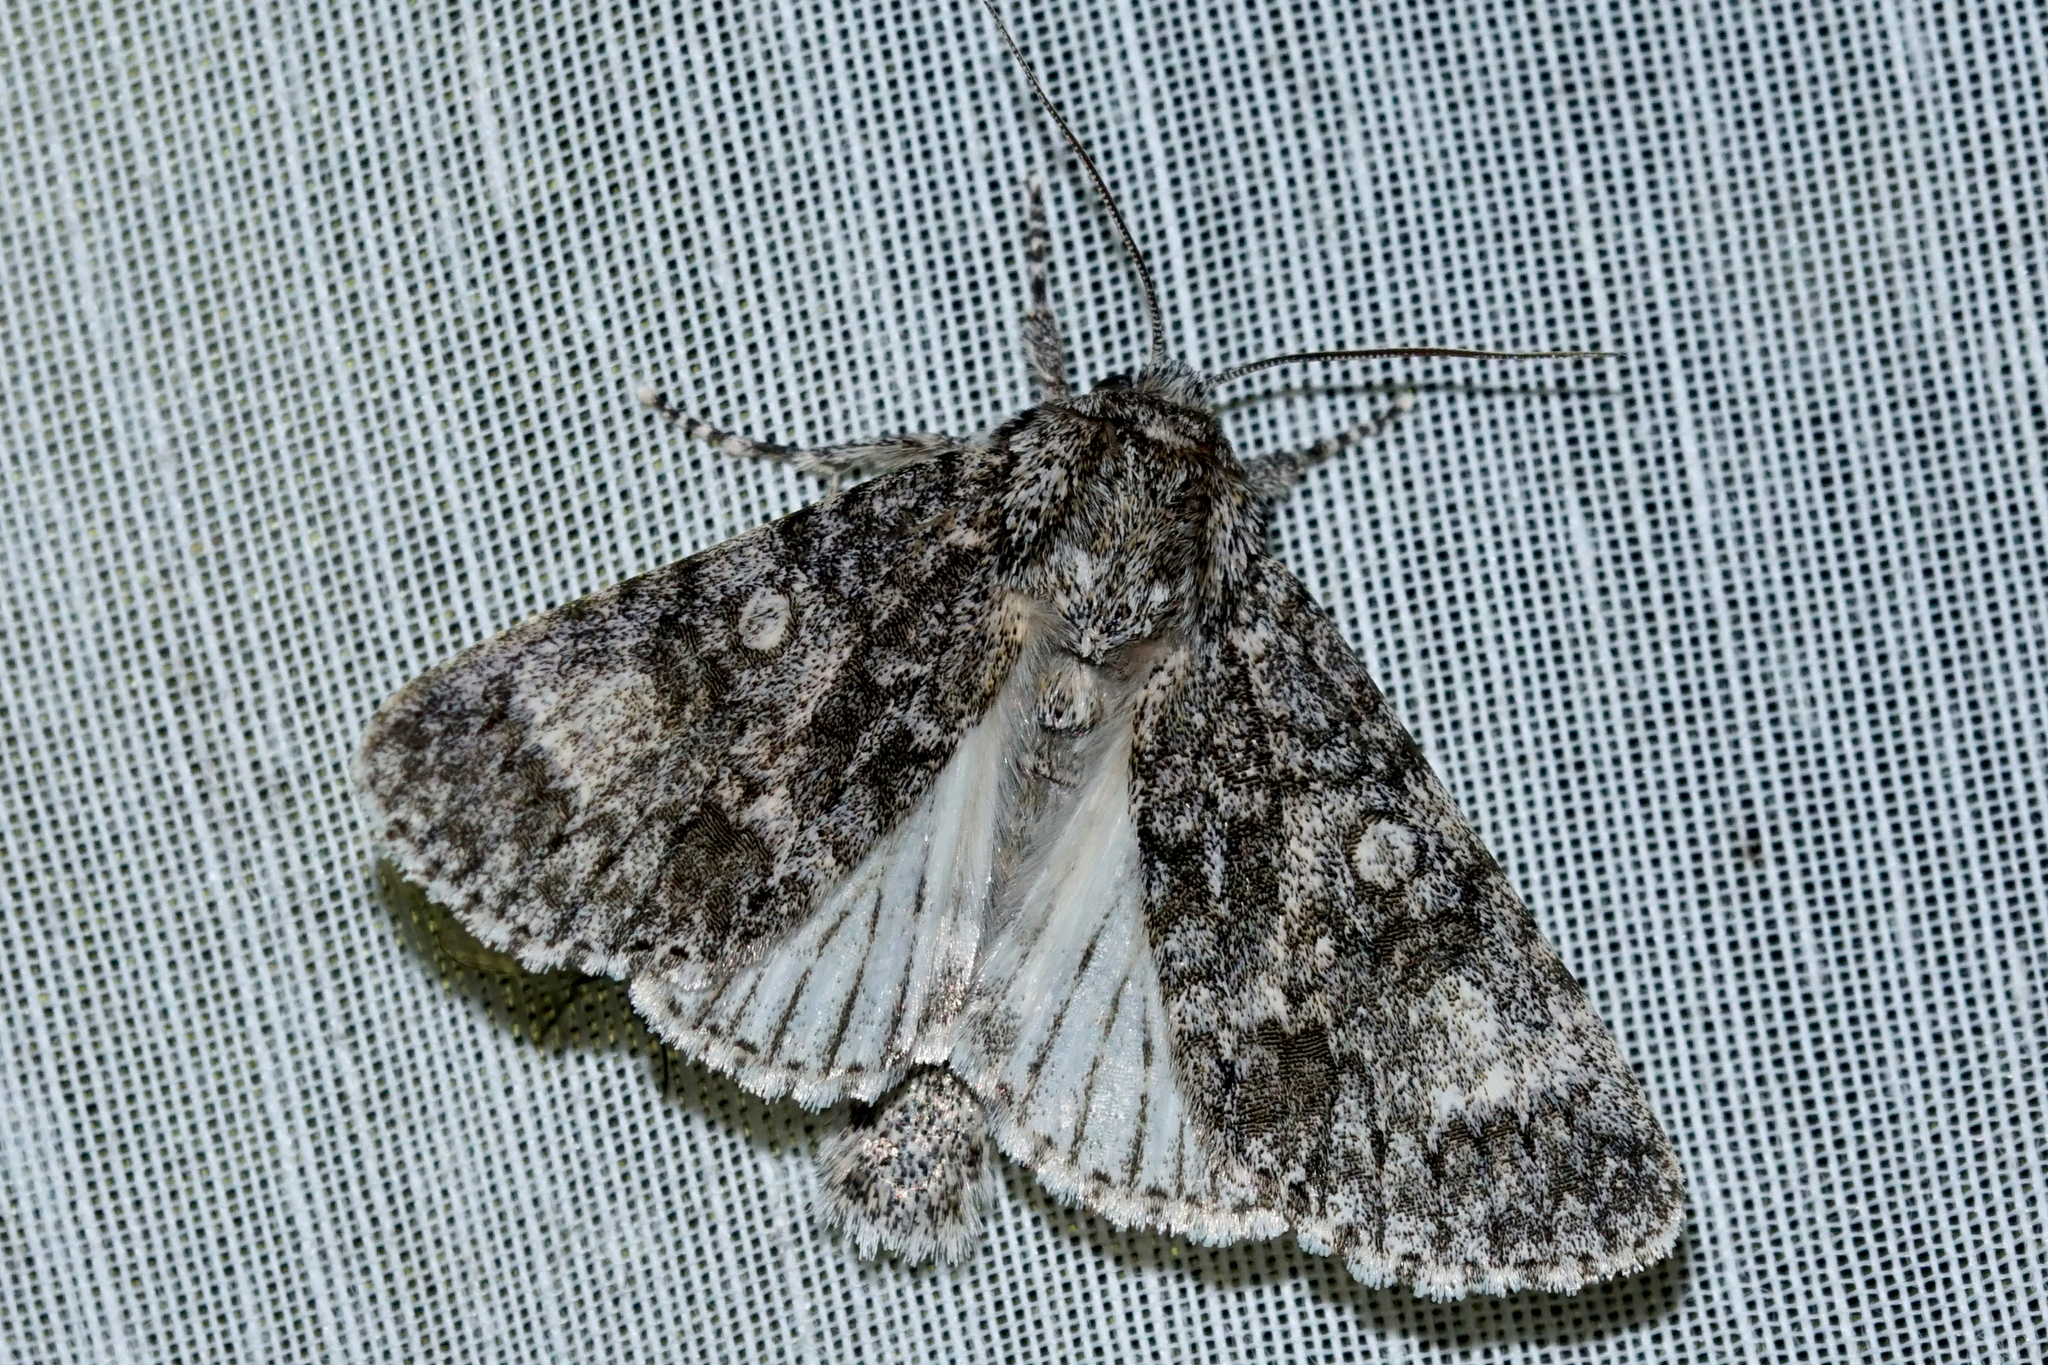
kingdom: Animalia
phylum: Arthropoda
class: Insecta
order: Lepidoptera
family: Noctuidae
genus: Acronicta
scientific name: Acronicta megacephala
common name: Poplar grey
